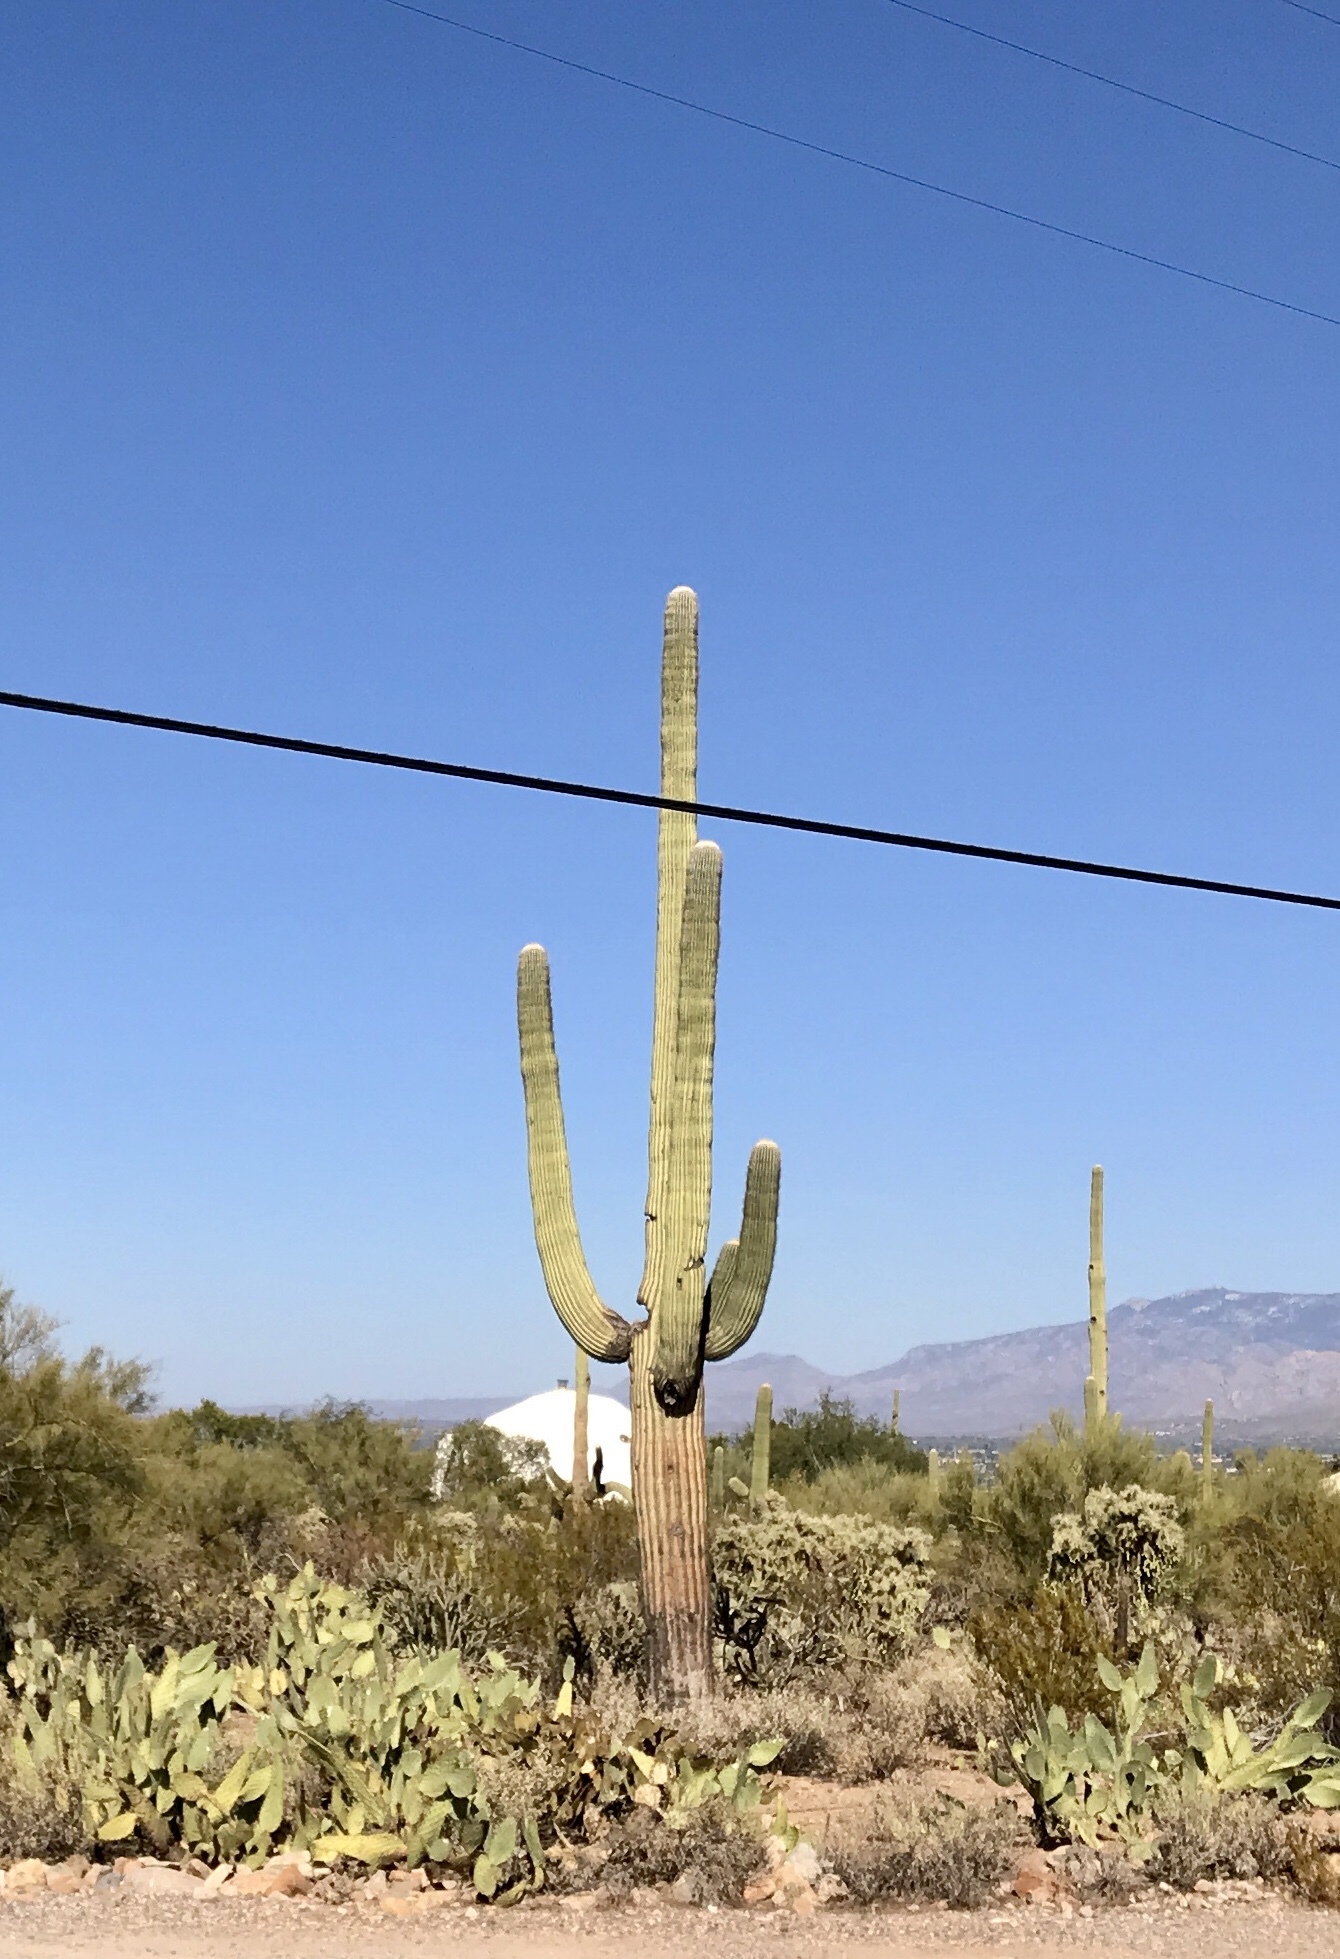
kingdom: Plantae
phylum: Tracheophyta
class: Magnoliopsida
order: Caryophyllales
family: Cactaceae
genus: Carnegiea
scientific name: Carnegiea gigantea
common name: Saguaro
